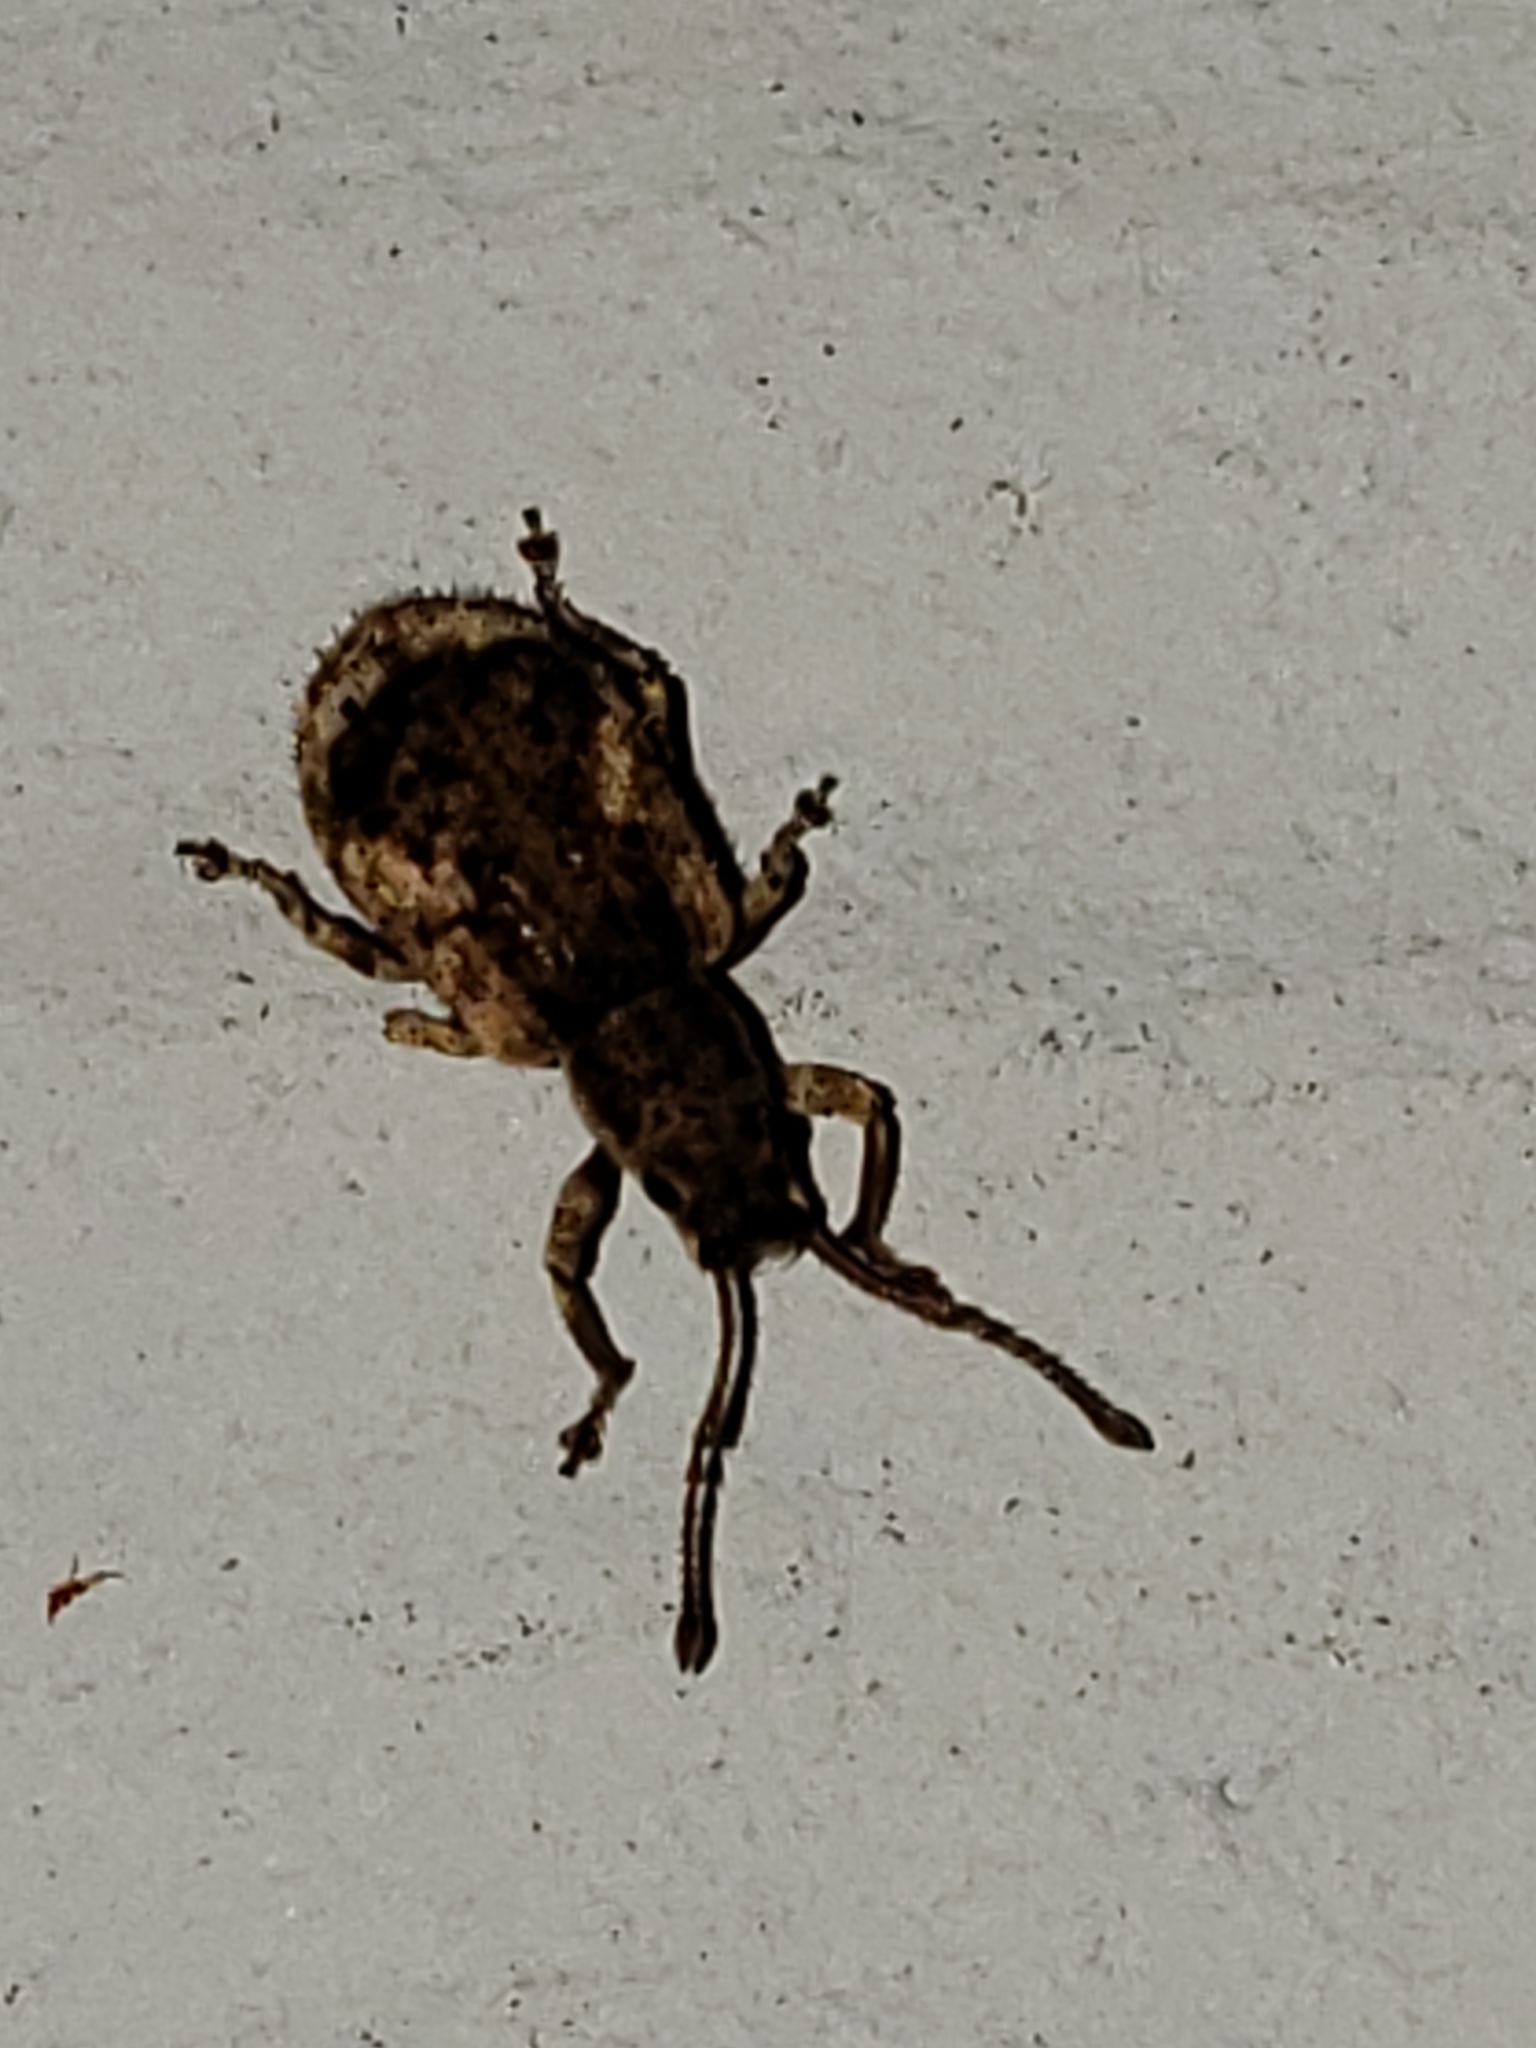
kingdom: Animalia
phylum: Arthropoda
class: Insecta
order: Coleoptera
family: Curculionidae
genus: Pseudoedophrys
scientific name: Pseudoedophrys hilleri
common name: Weevil
